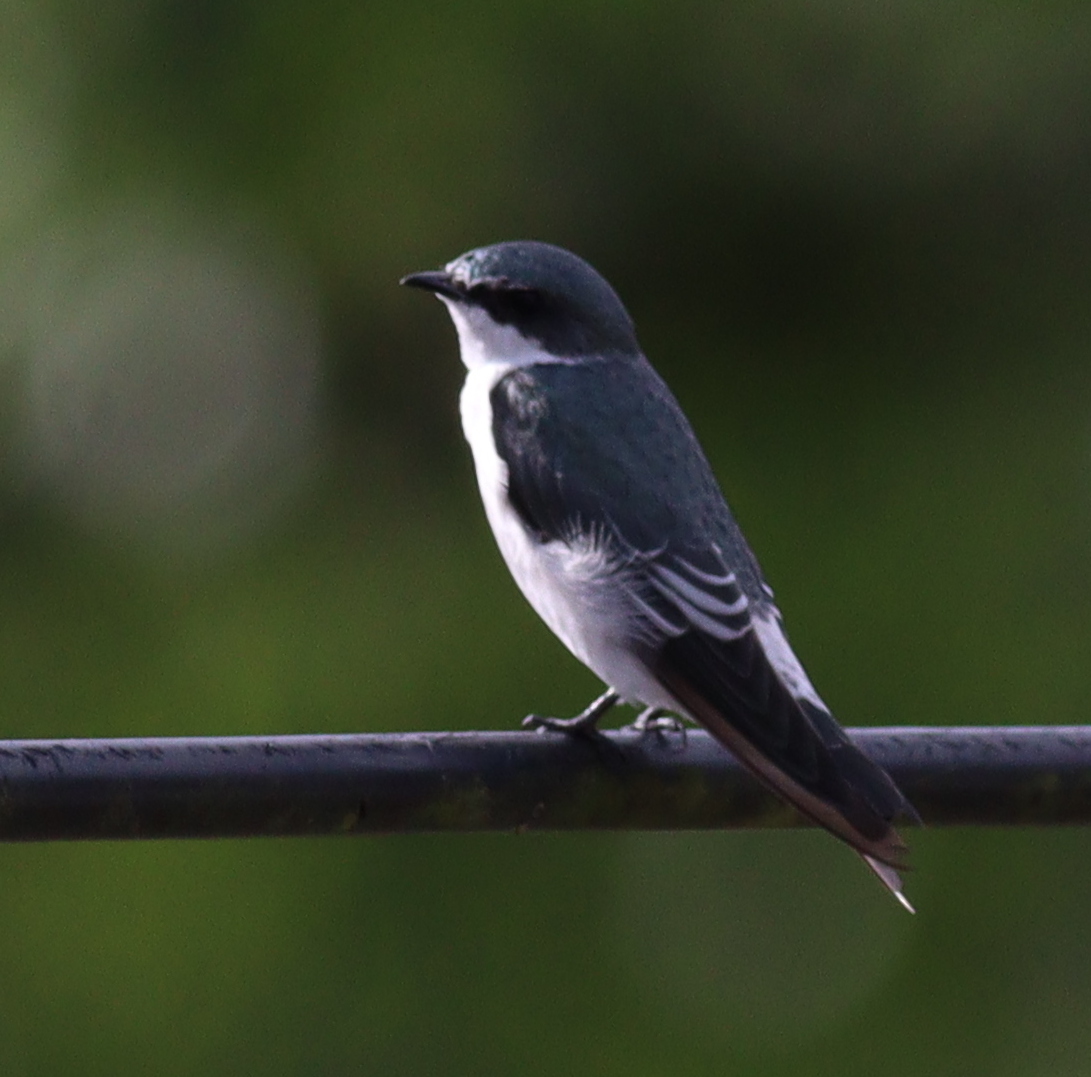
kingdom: Animalia
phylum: Chordata
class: Aves
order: Passeriformes
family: Hirundinidae
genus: Tachycineta
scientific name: Tachycineta albilinea
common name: Mangrove swallow
